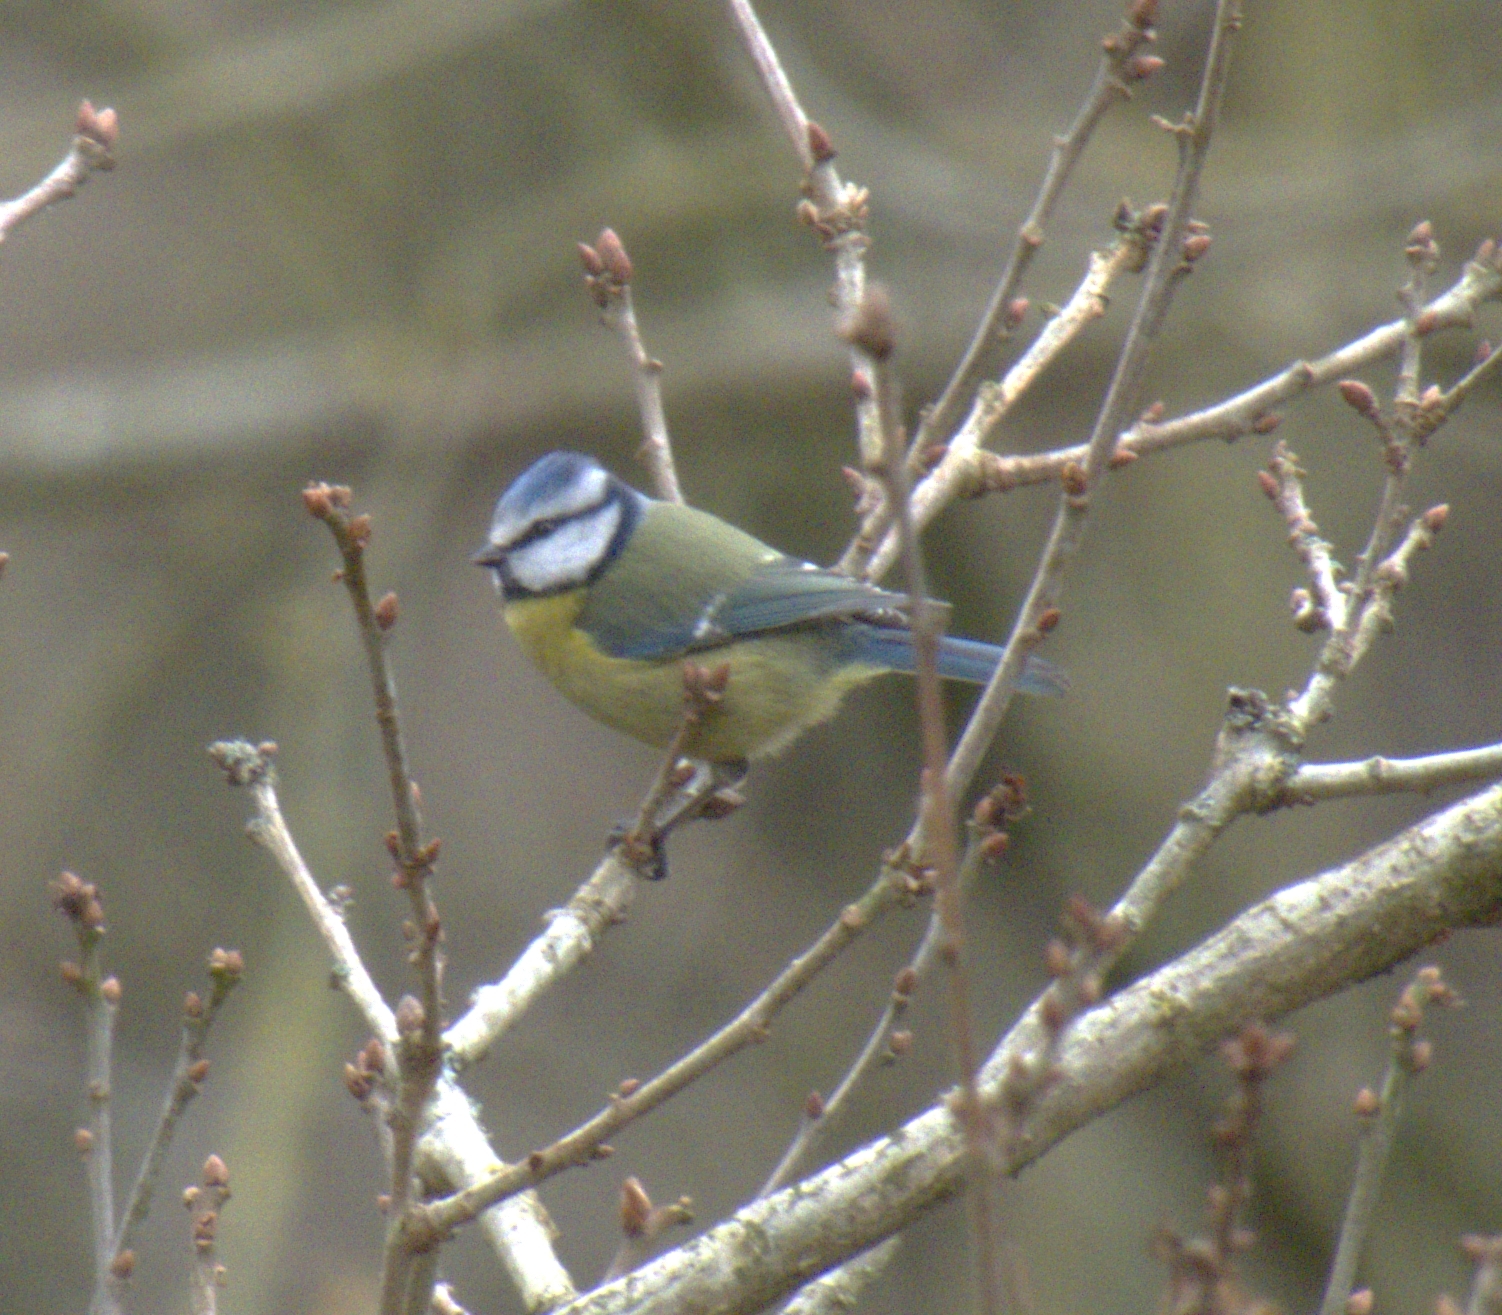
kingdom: Animalia
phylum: Chordata
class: Aves
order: Passeriformes
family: Paridae
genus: Cyanistes
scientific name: Cyanistes caeruleus
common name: Eurasian blue tit
